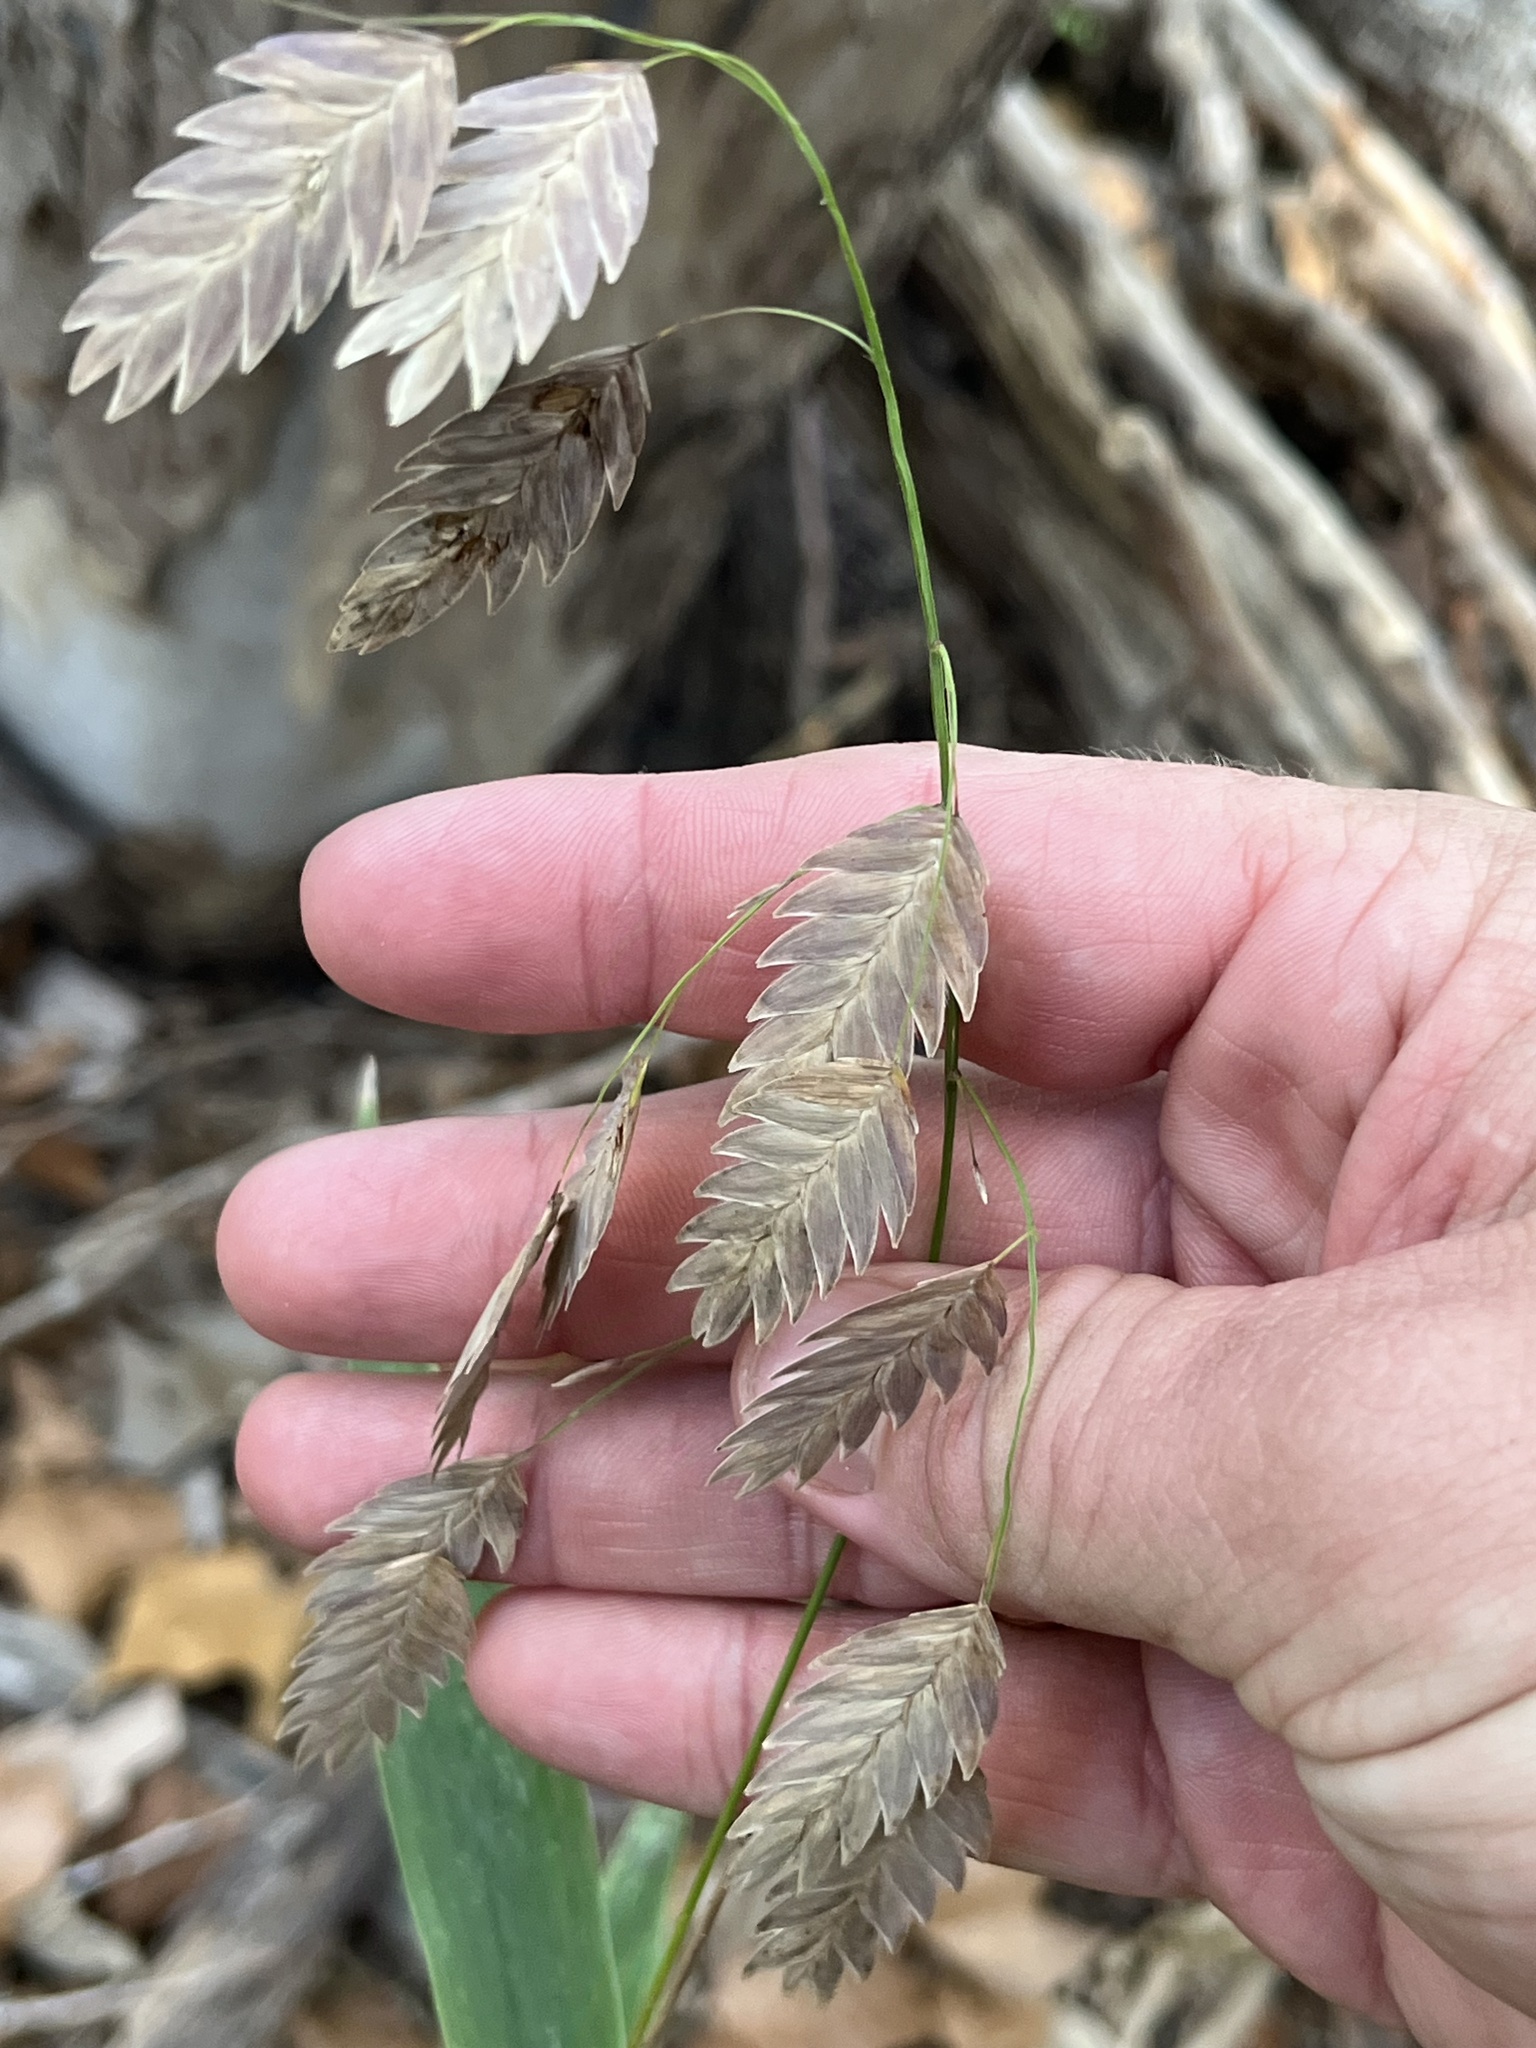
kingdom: Plantae
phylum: Tracheophyta
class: Liliopsida
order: Poales
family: Poaceae
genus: Chasmanthium
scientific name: Chasmanthium latifolium
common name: Broad-leaved chasmanthium
